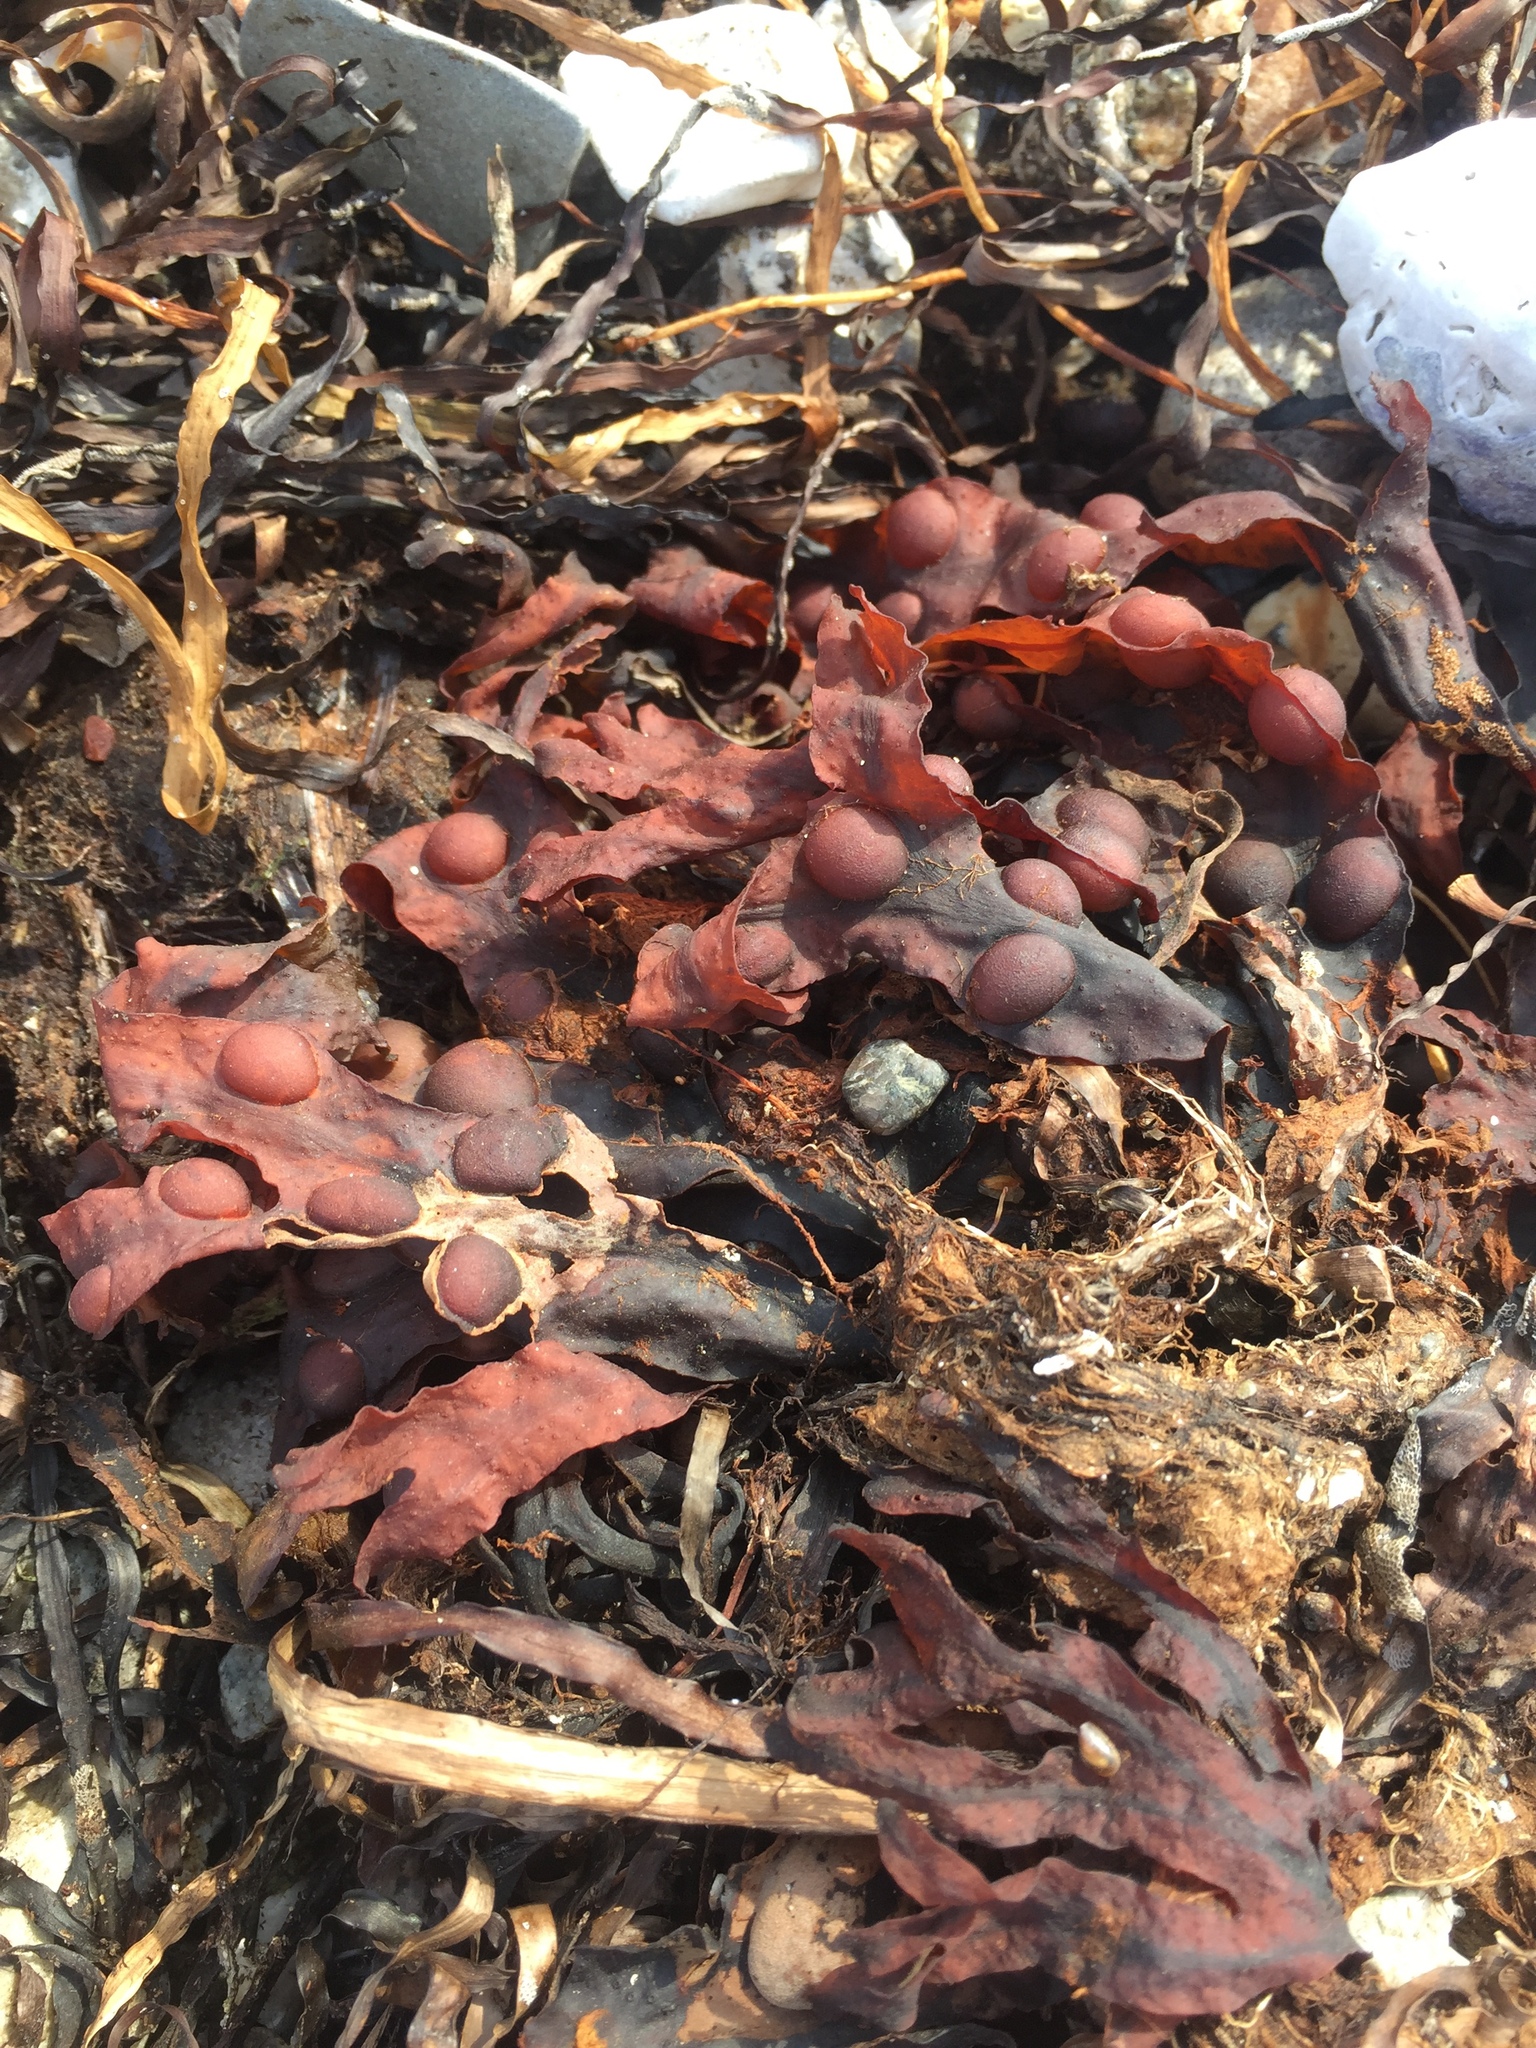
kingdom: Chromista
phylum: Ochrophyta
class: Phaeophyceae
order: Fucales
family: Fucaceae
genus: Fucus
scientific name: Fucus vesiculosus
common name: Bladder wrack
